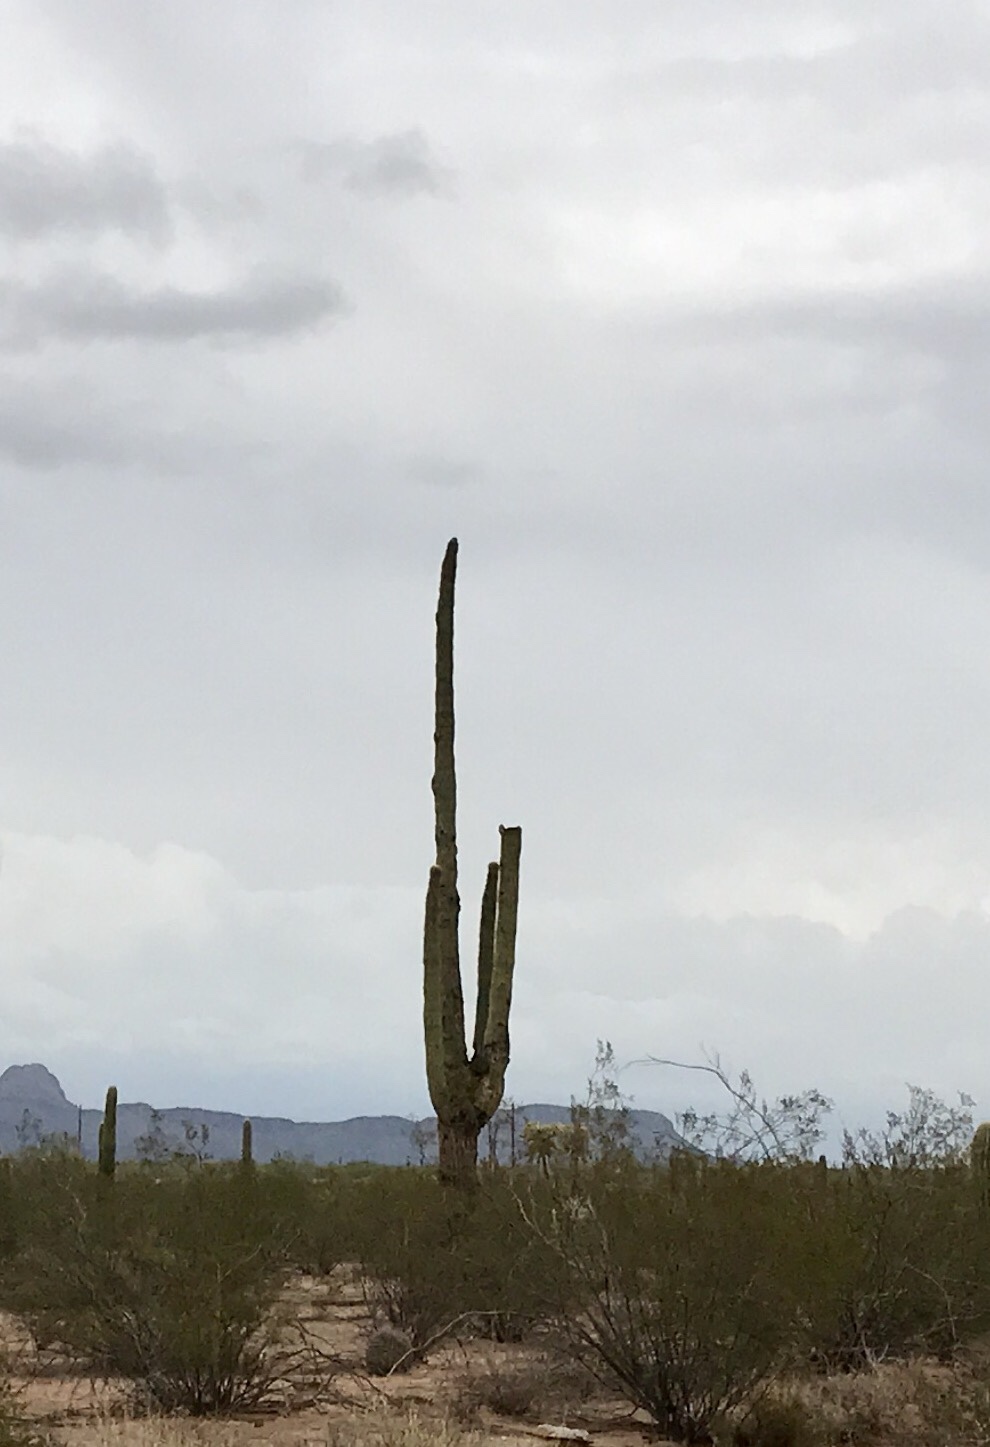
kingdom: Plantae
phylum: Tracheophyta
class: Magnoliopsida
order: Caryophyllales
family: Cactaceae
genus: Carnegiea
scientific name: Carnegiea gigantea
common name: Saguaro
